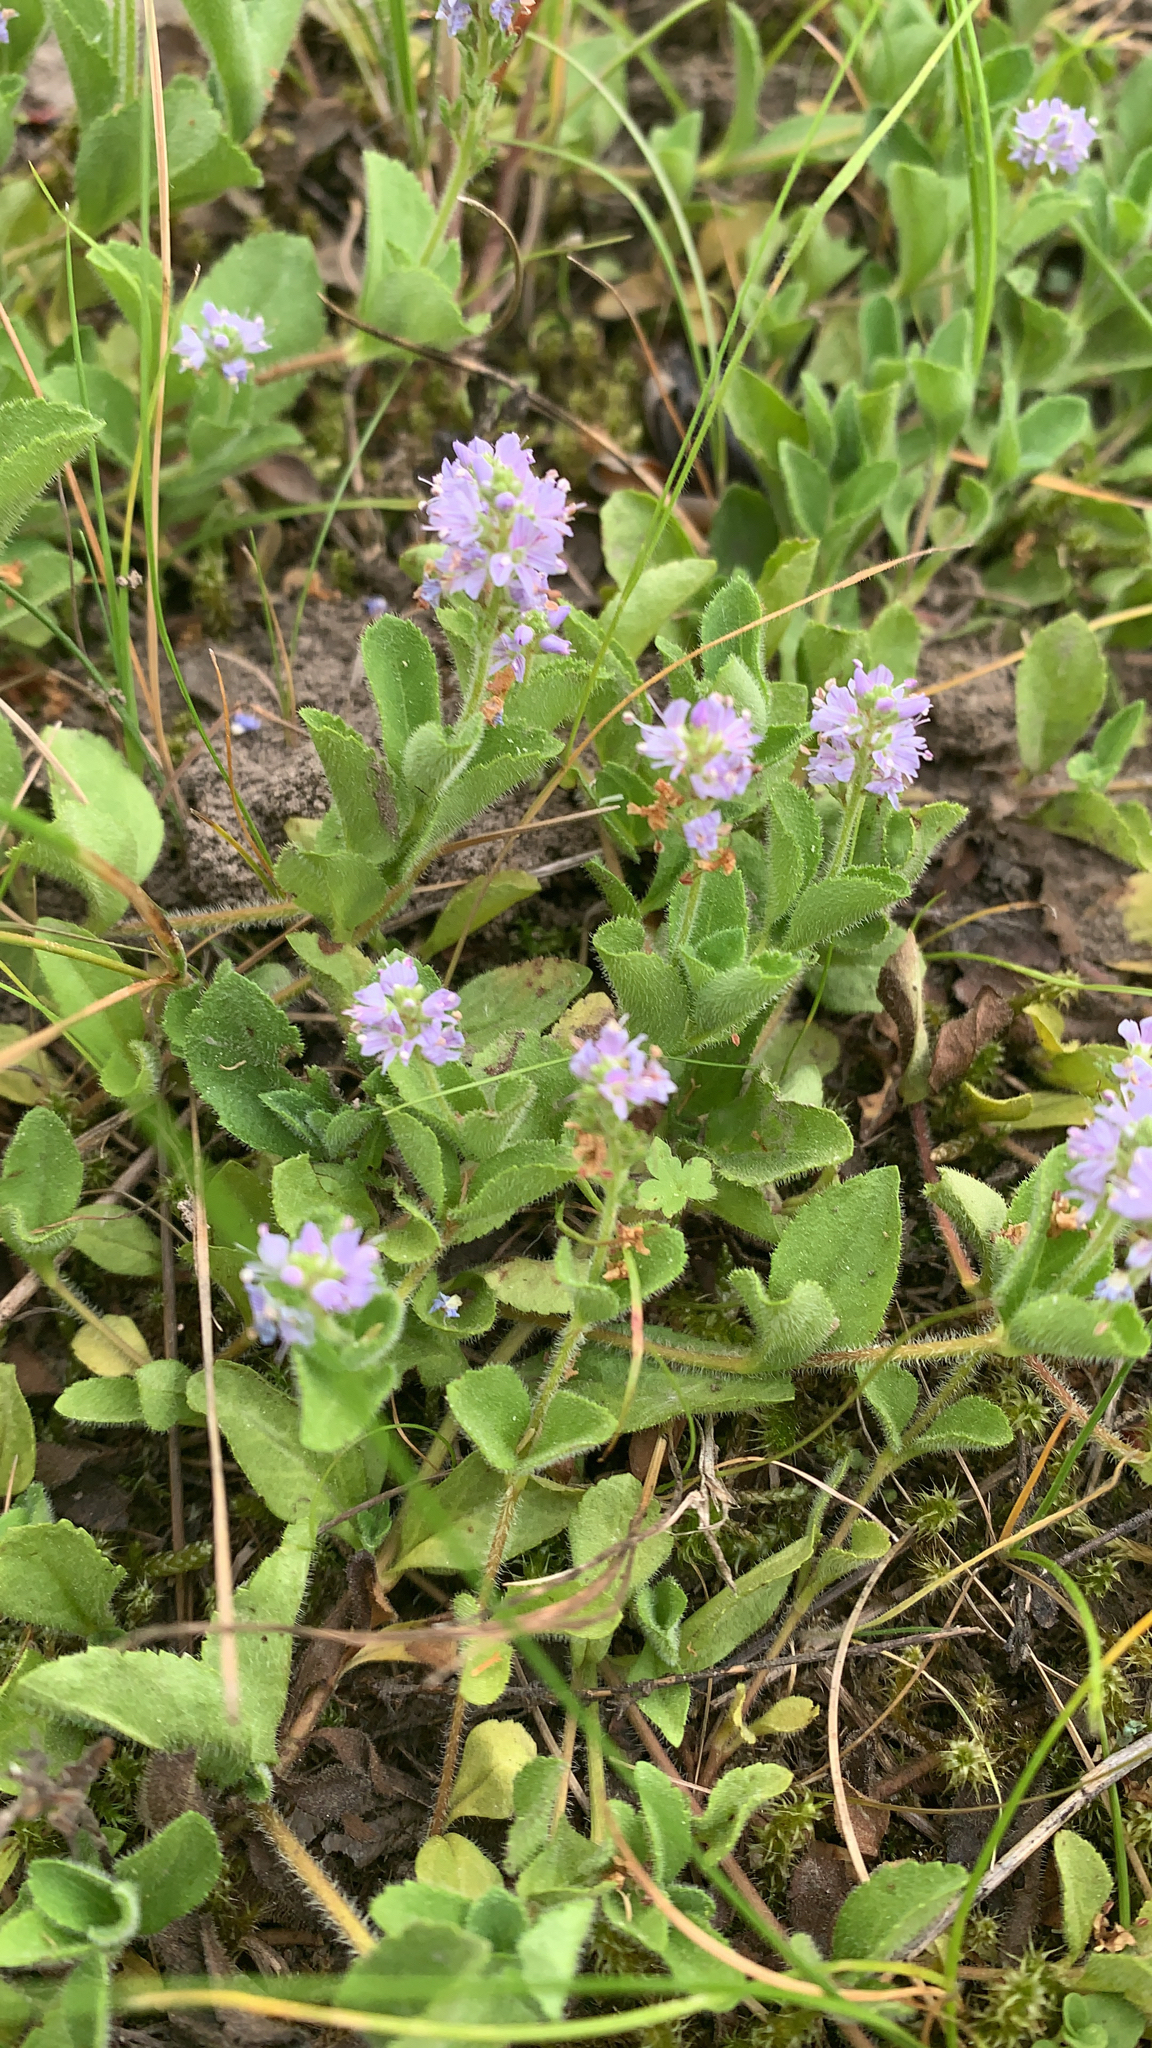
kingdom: Plantae
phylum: Tracheophyta
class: Magnoliopsida
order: Lamiales
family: Plantaginaceae
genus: Veronica
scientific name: Veronica officinalis
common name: Common speedwell
